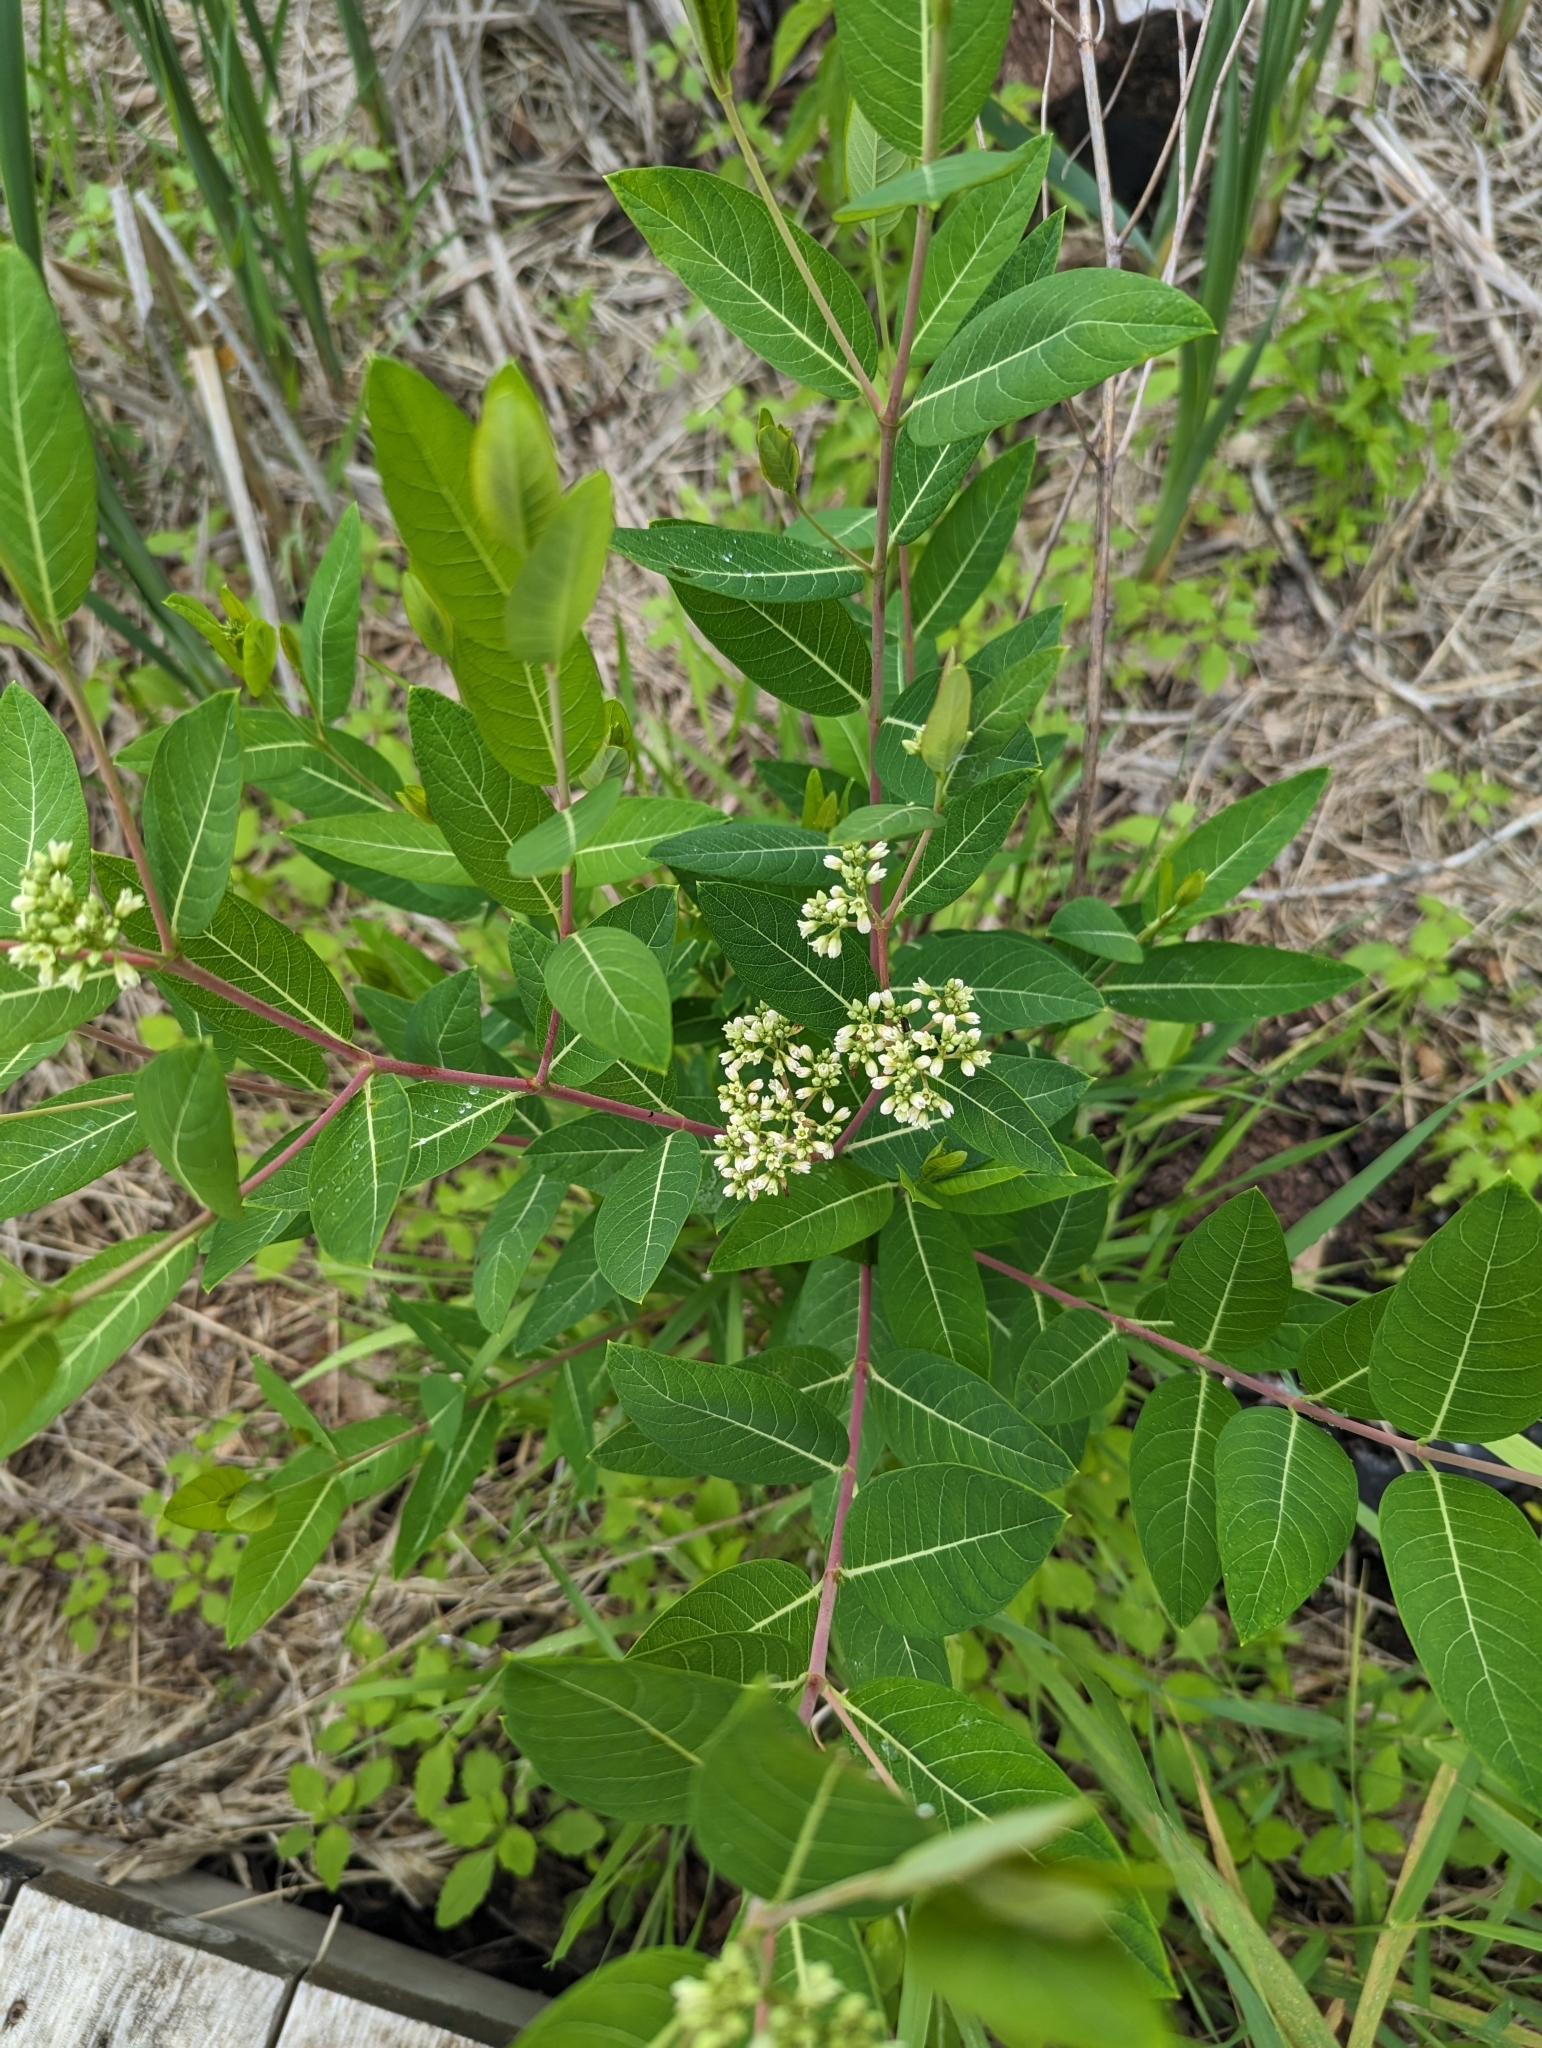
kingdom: Plantae
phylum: Tracheophyta
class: Magnoliopsida
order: Gentianales
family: Apocynaceae
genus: Apocynum
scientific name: Apocynum cannabinum
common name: Hemp dogbane
